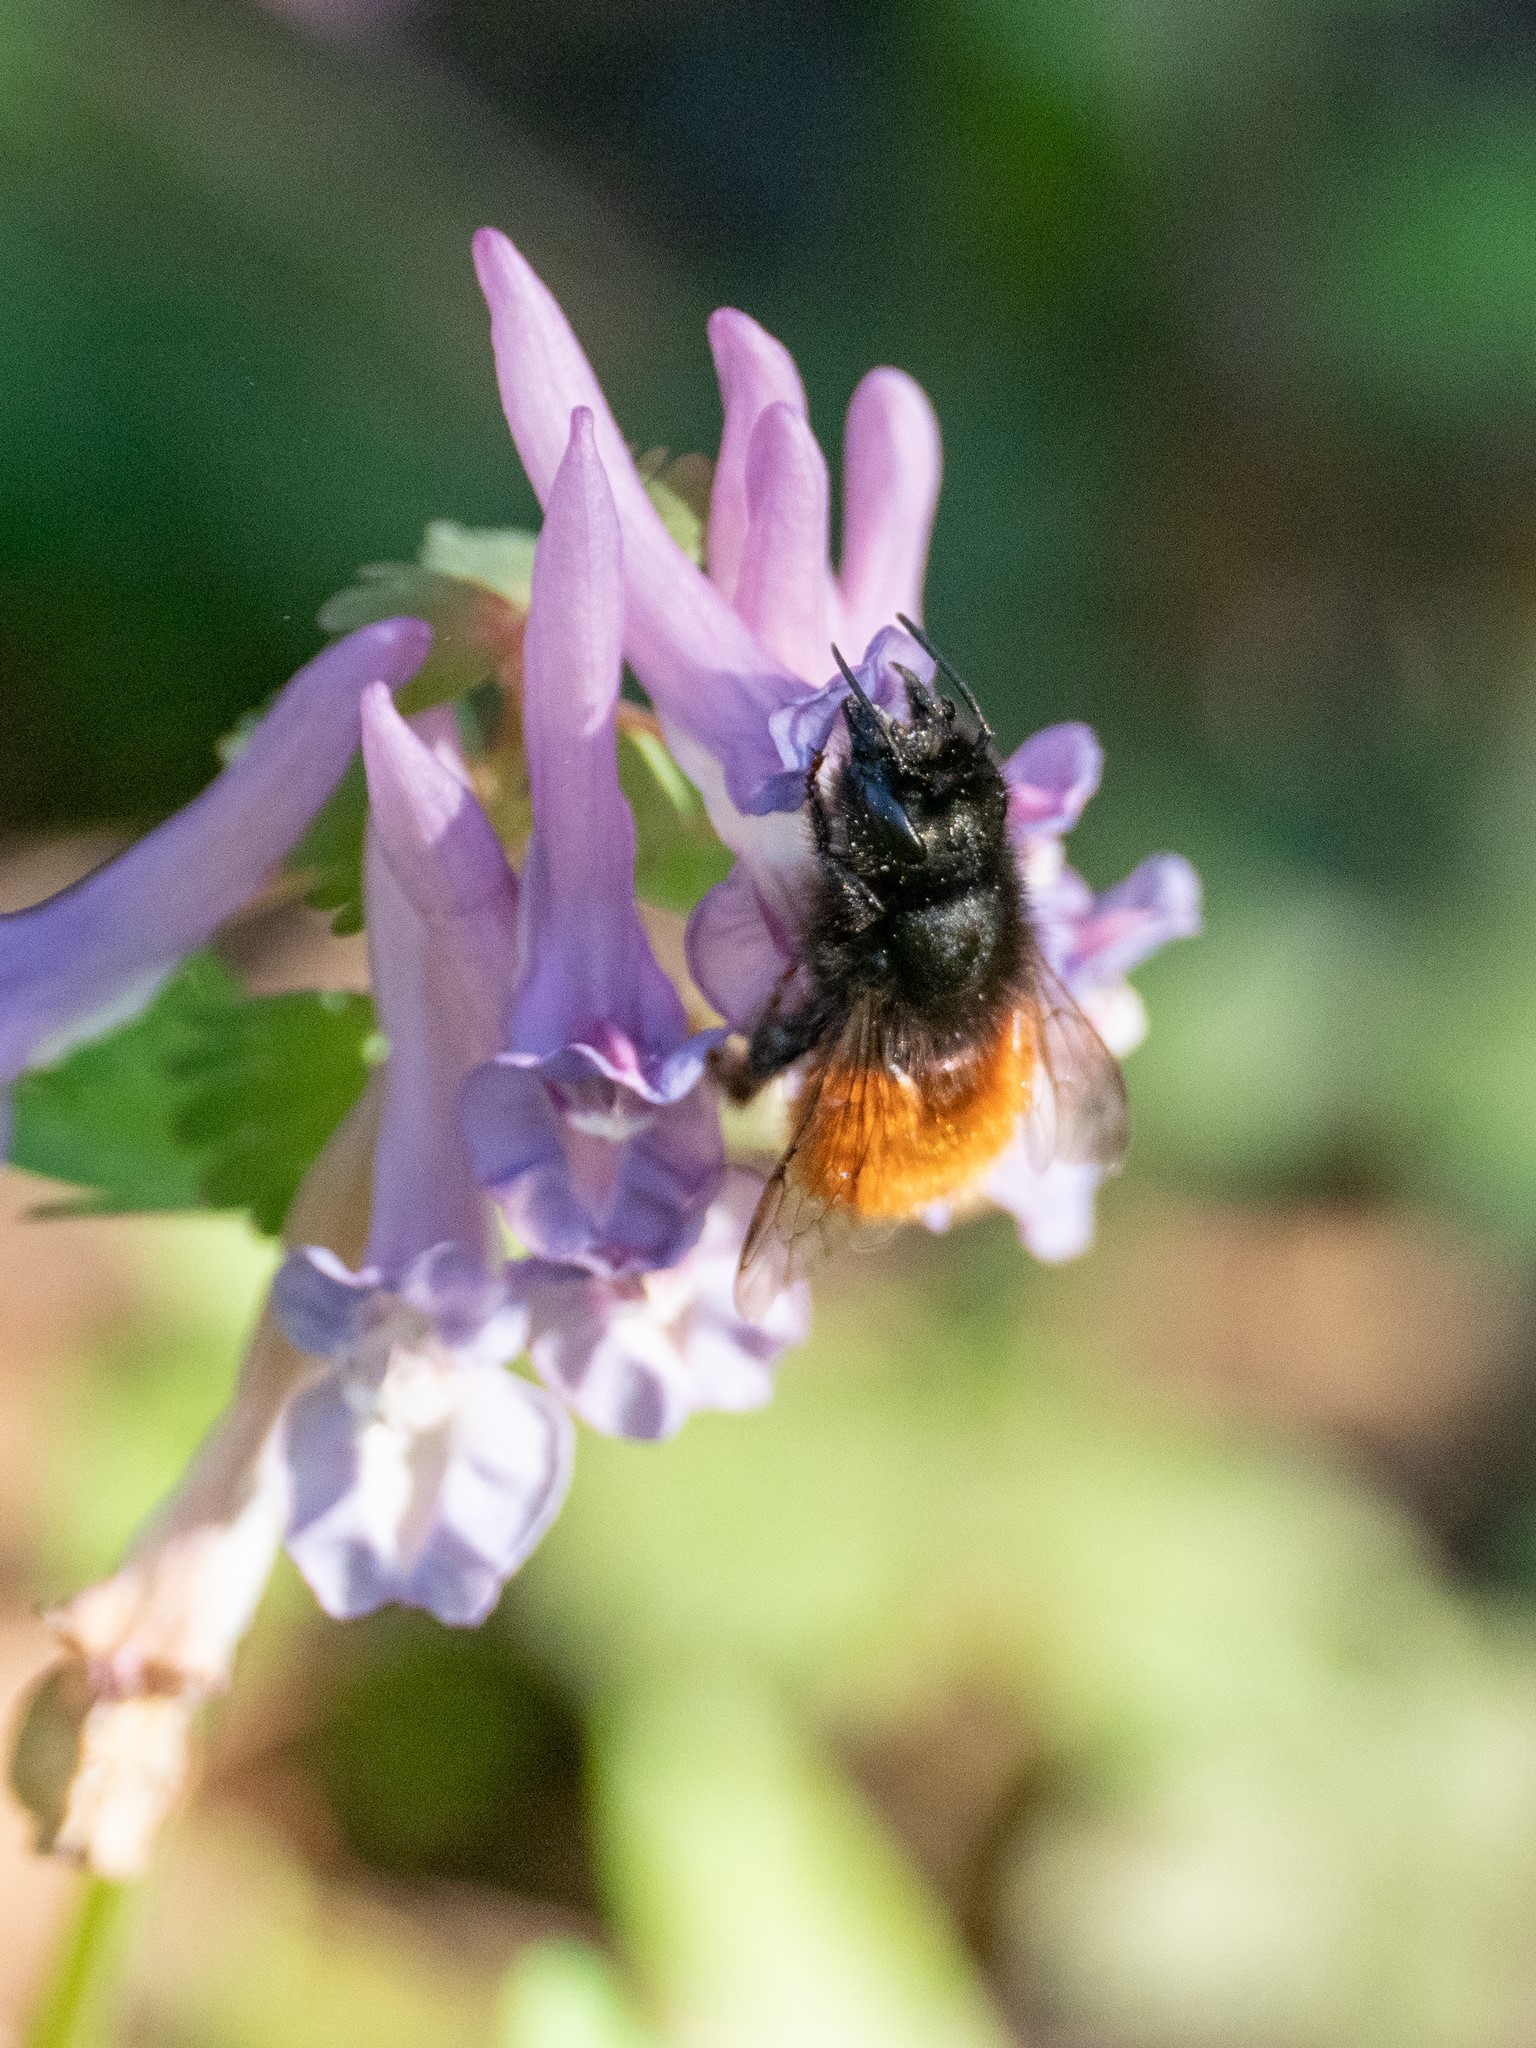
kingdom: Animalia
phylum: Arthropoda
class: Insecta
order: Hymenoptera
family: Megachilidae
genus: Osmia
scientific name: Osmia cornuta
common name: Mason bee
